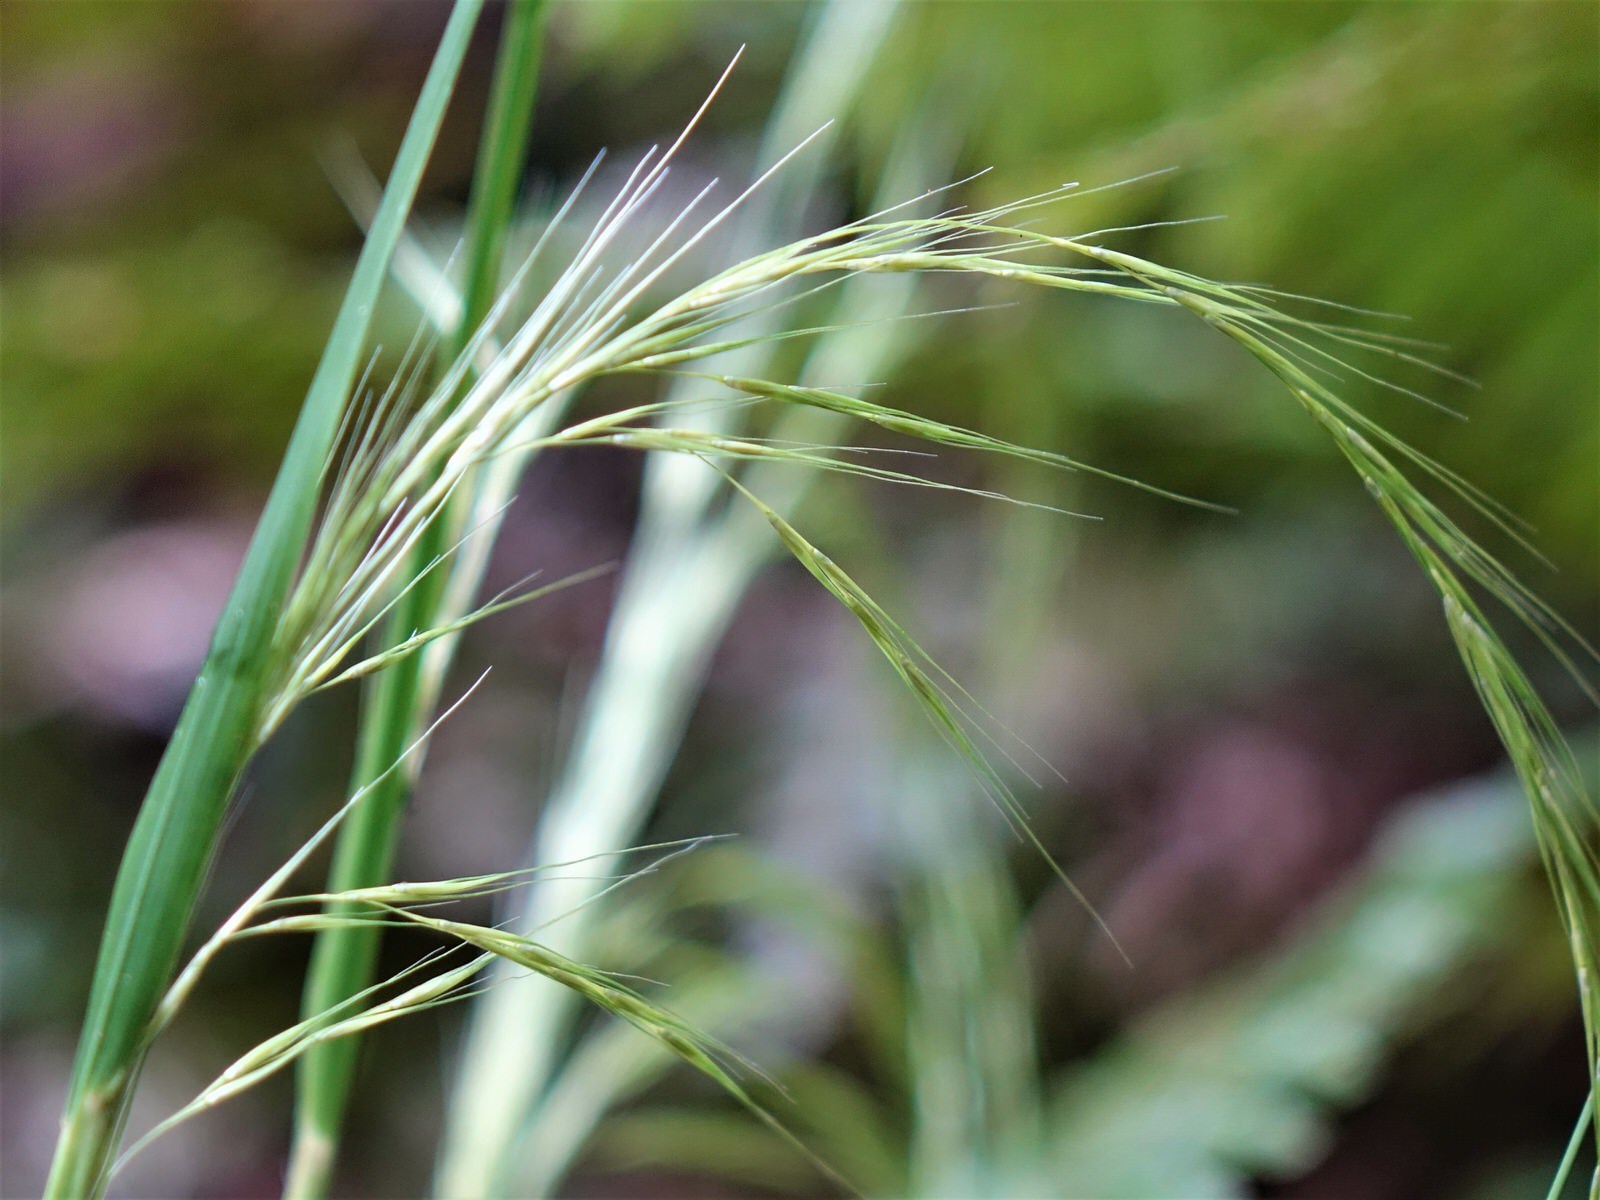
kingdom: Plantae
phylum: Tracheophyta
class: Liliopsida
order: Poales
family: Poaceae
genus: Ehrharta
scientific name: Ehrharta diplax
